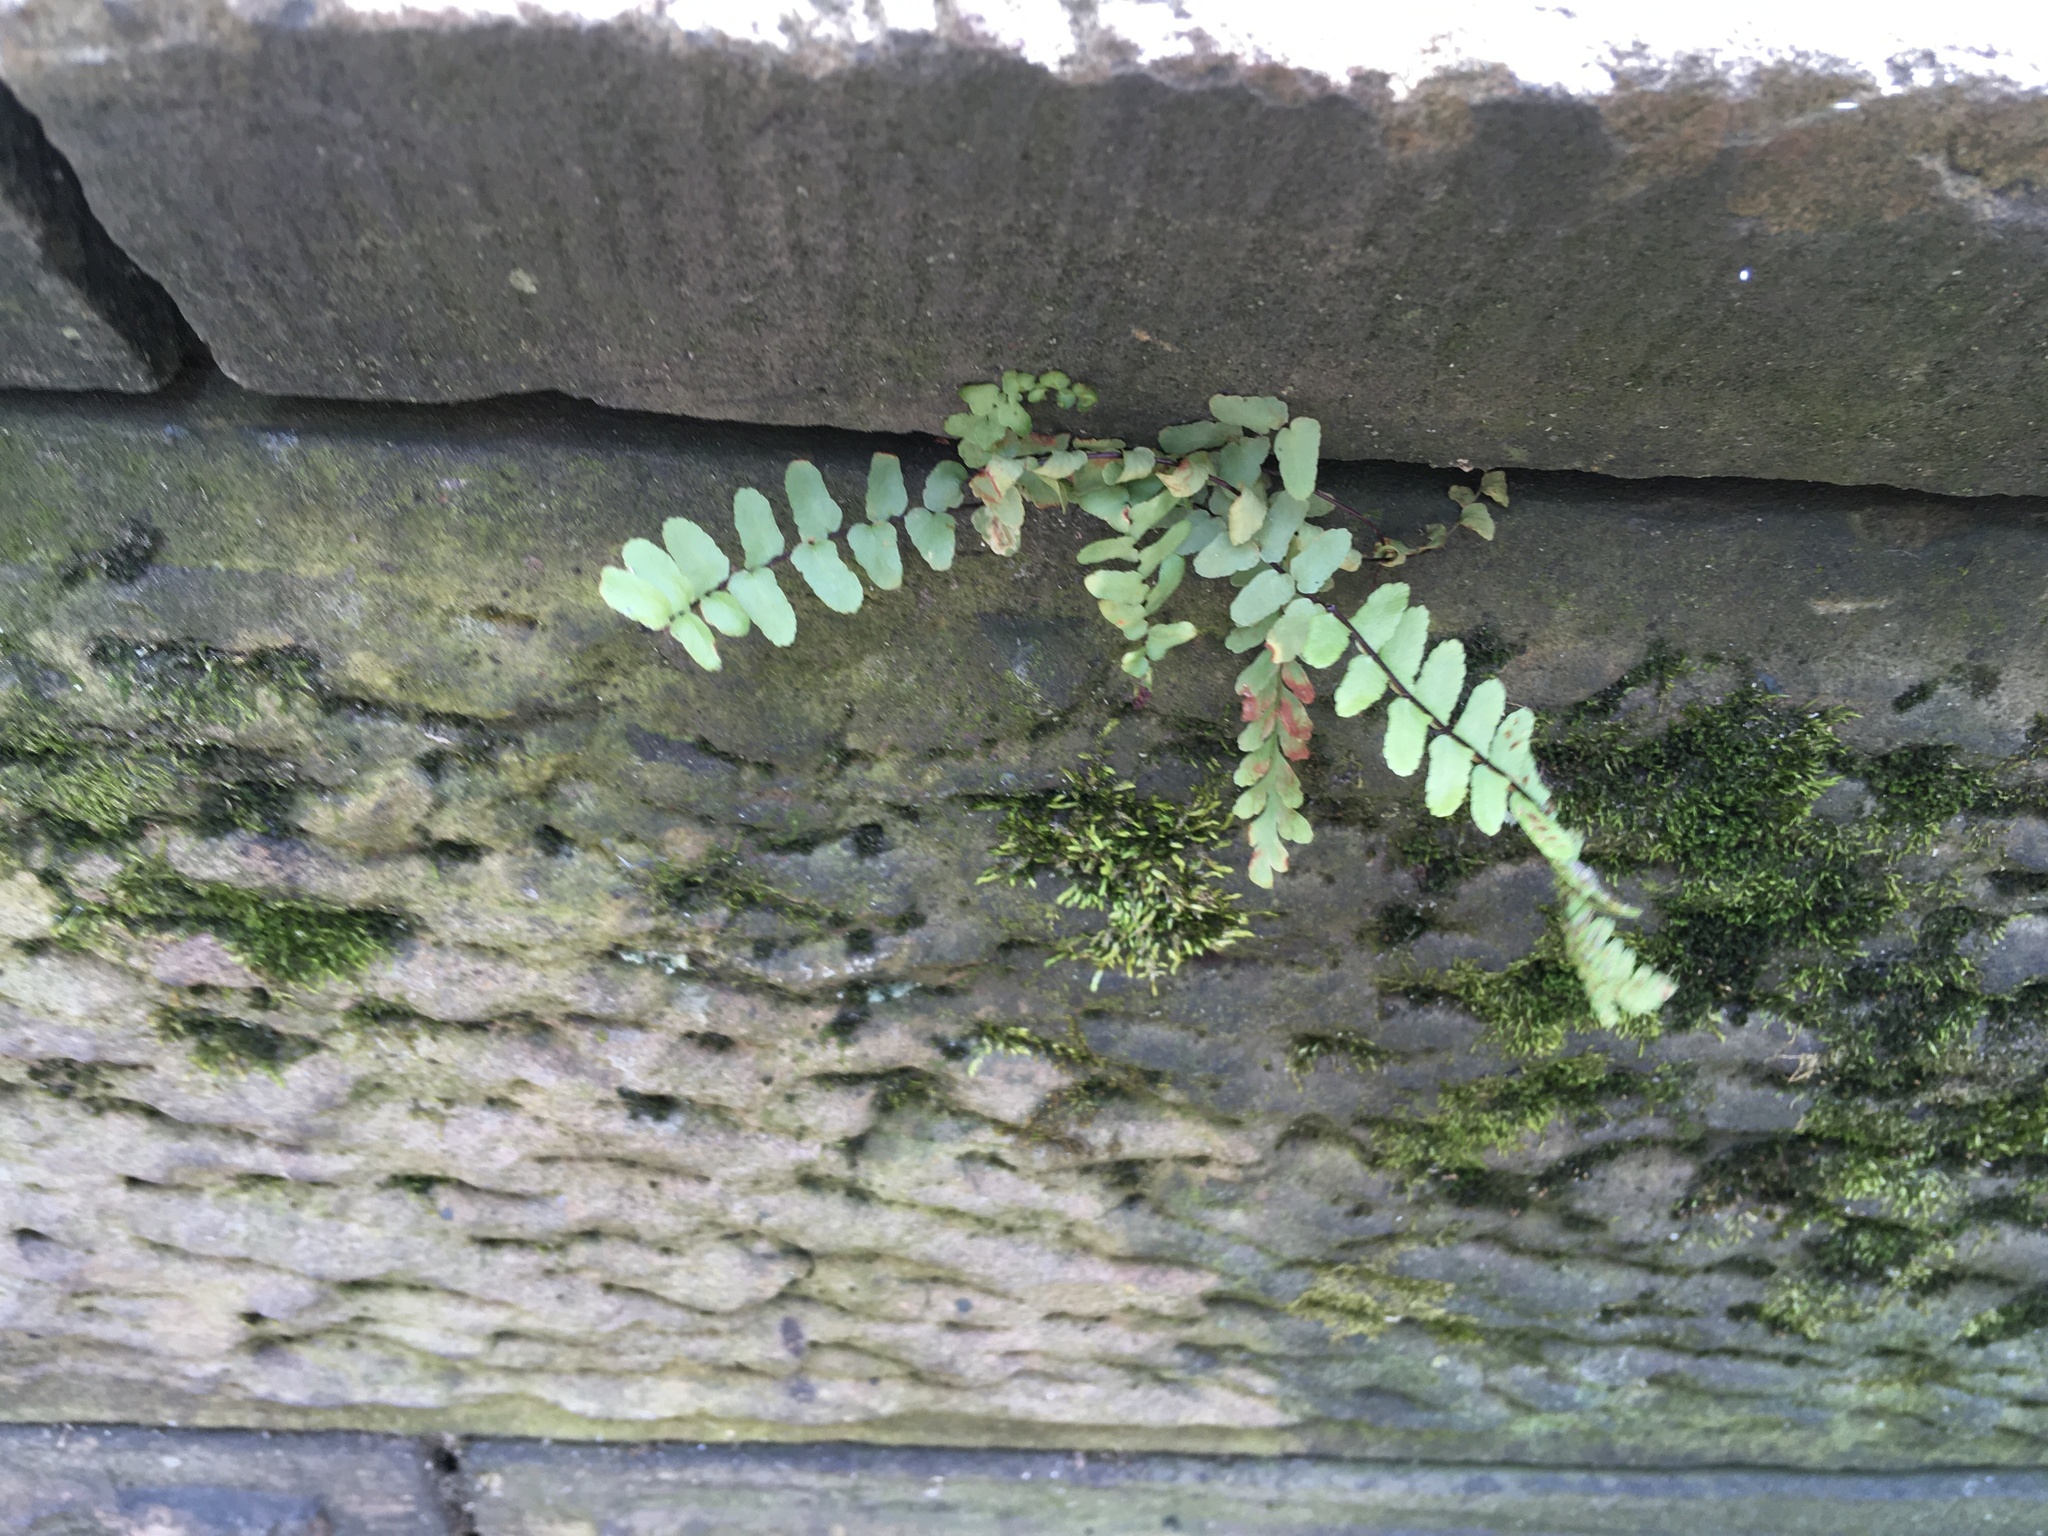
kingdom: Plantae
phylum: Tracheophyta
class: Polypodiopsida
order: Polypodiales
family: Aspleniaceae
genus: Asplenium
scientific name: Asplenium platyneuron
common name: Ebony spleenwort
